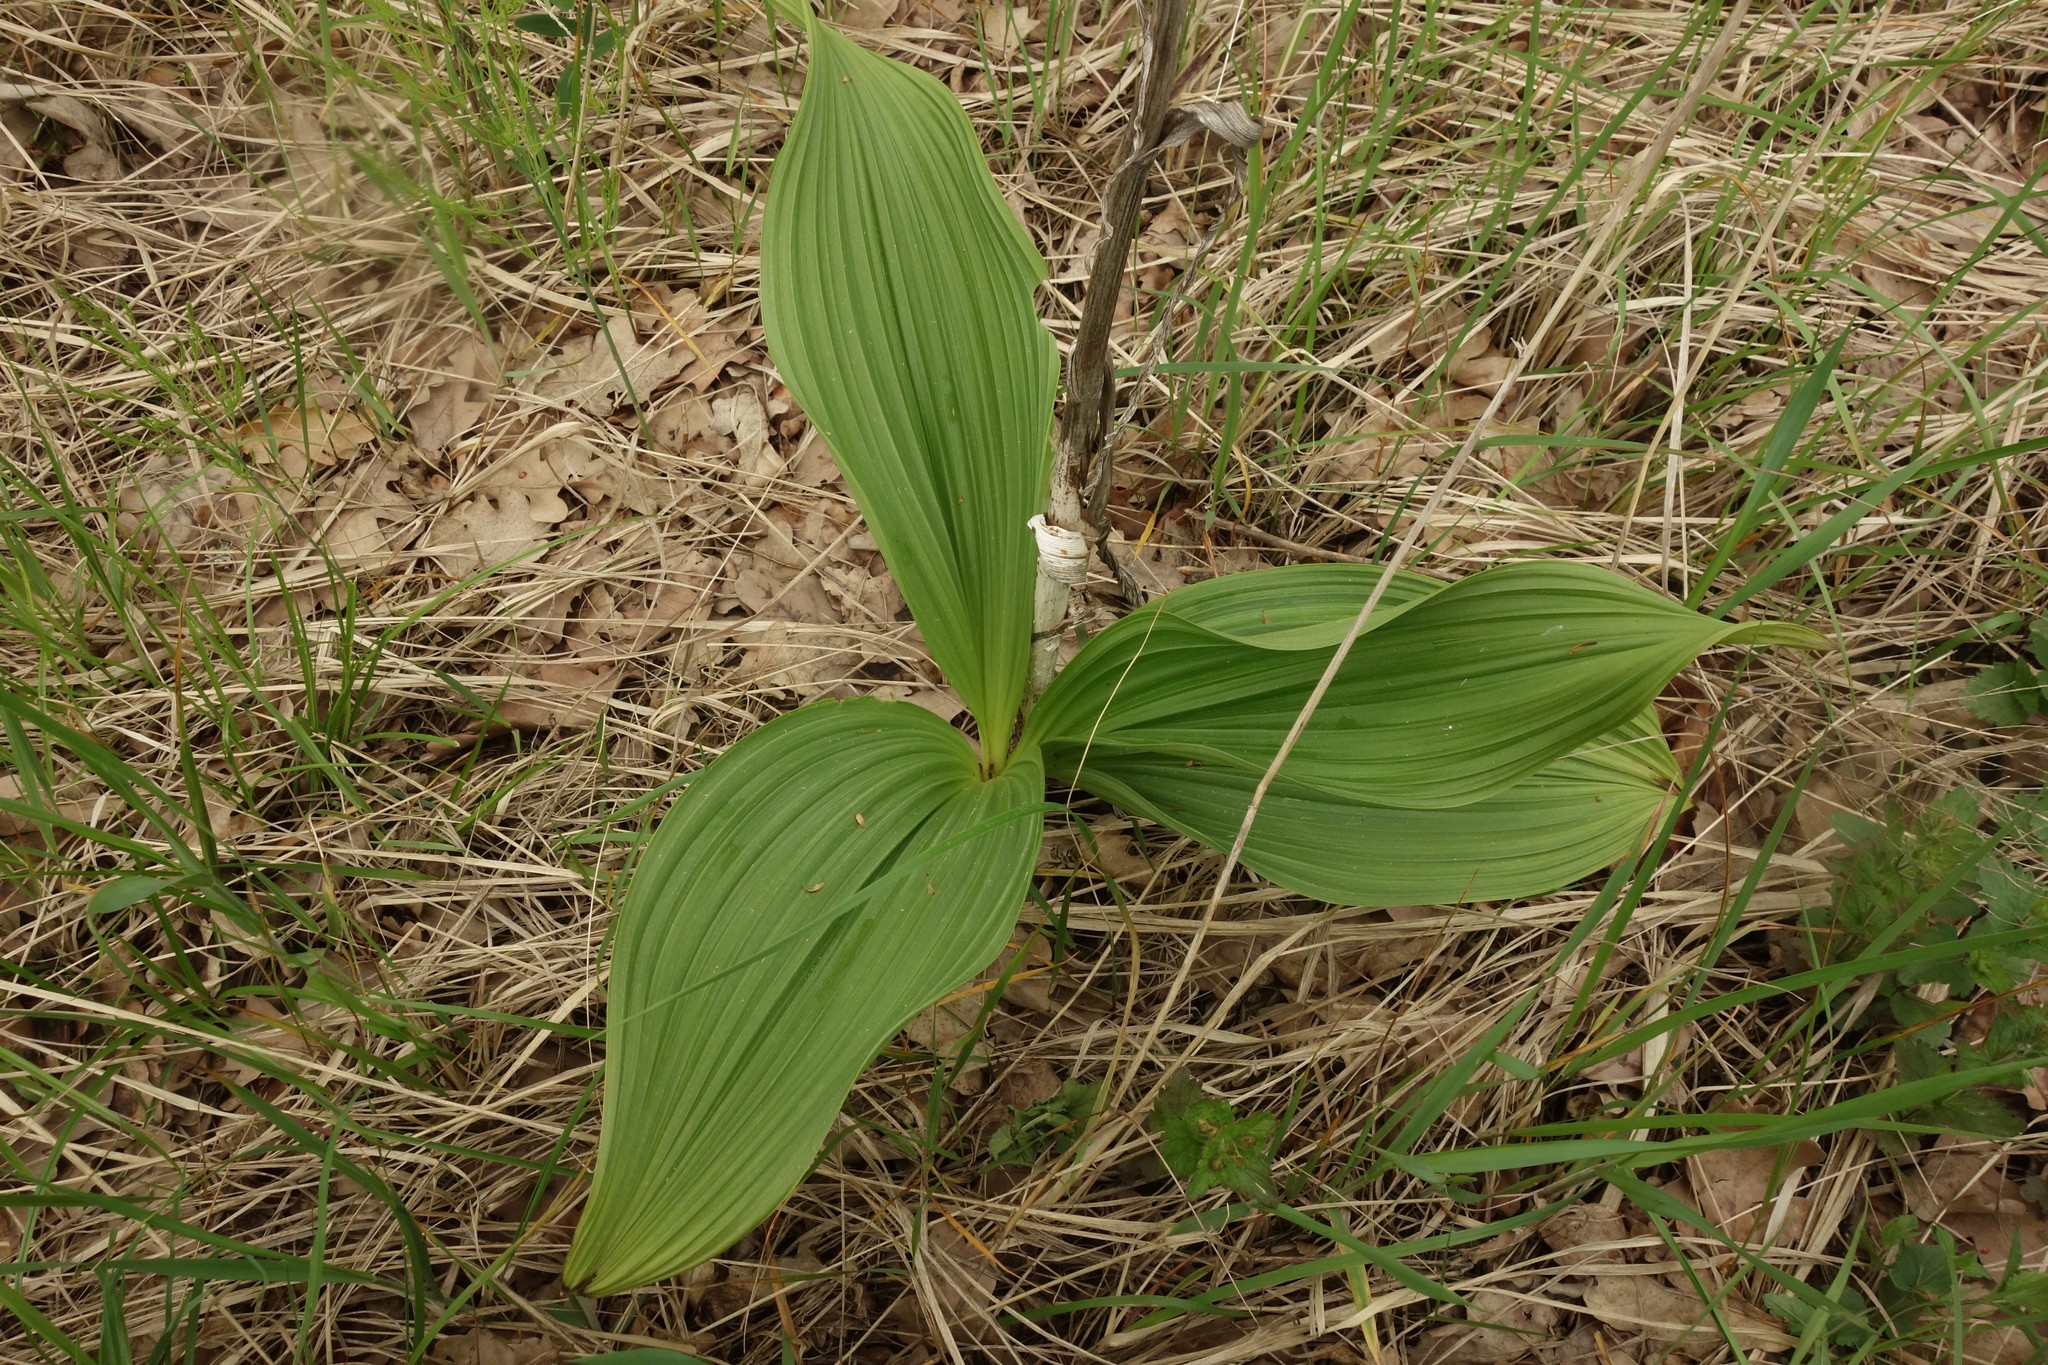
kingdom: Plantae
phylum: Tracheophyta
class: Liliopsida
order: Liliales
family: Melanthiaceae
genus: Veratrum
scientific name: Veratrum nigrum
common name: Black veratrum
